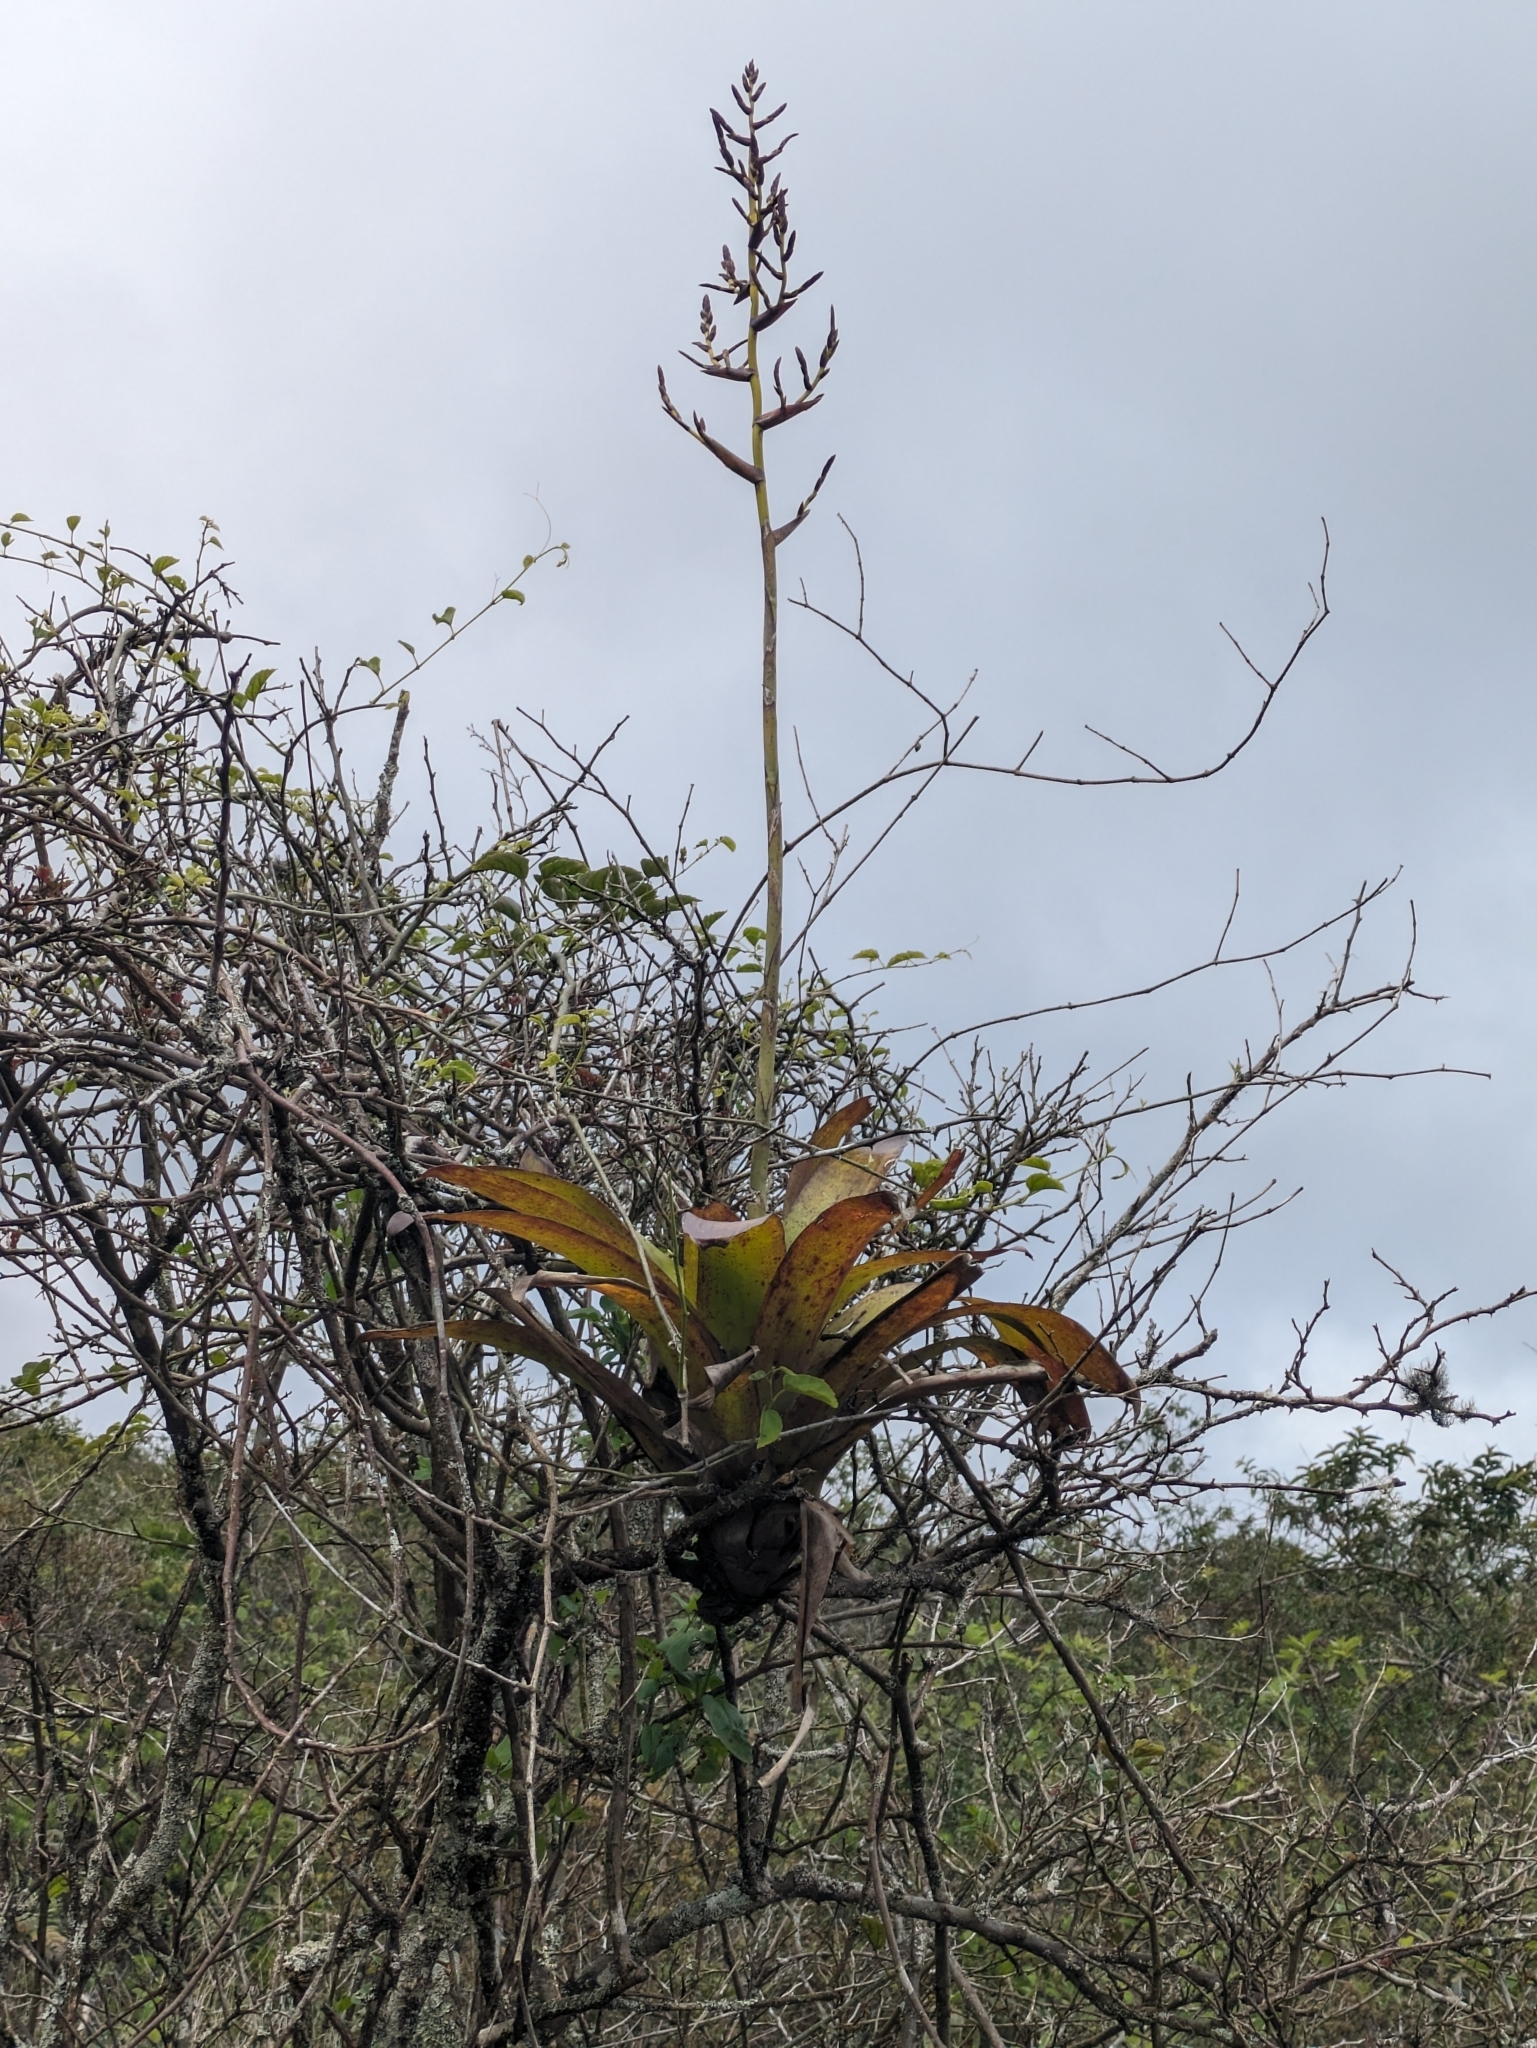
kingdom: Plantae
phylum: Tracheophyta
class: Liliopsida
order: Poales
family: Bromeliaceae
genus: Racinaea
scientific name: Racinaea insularis
